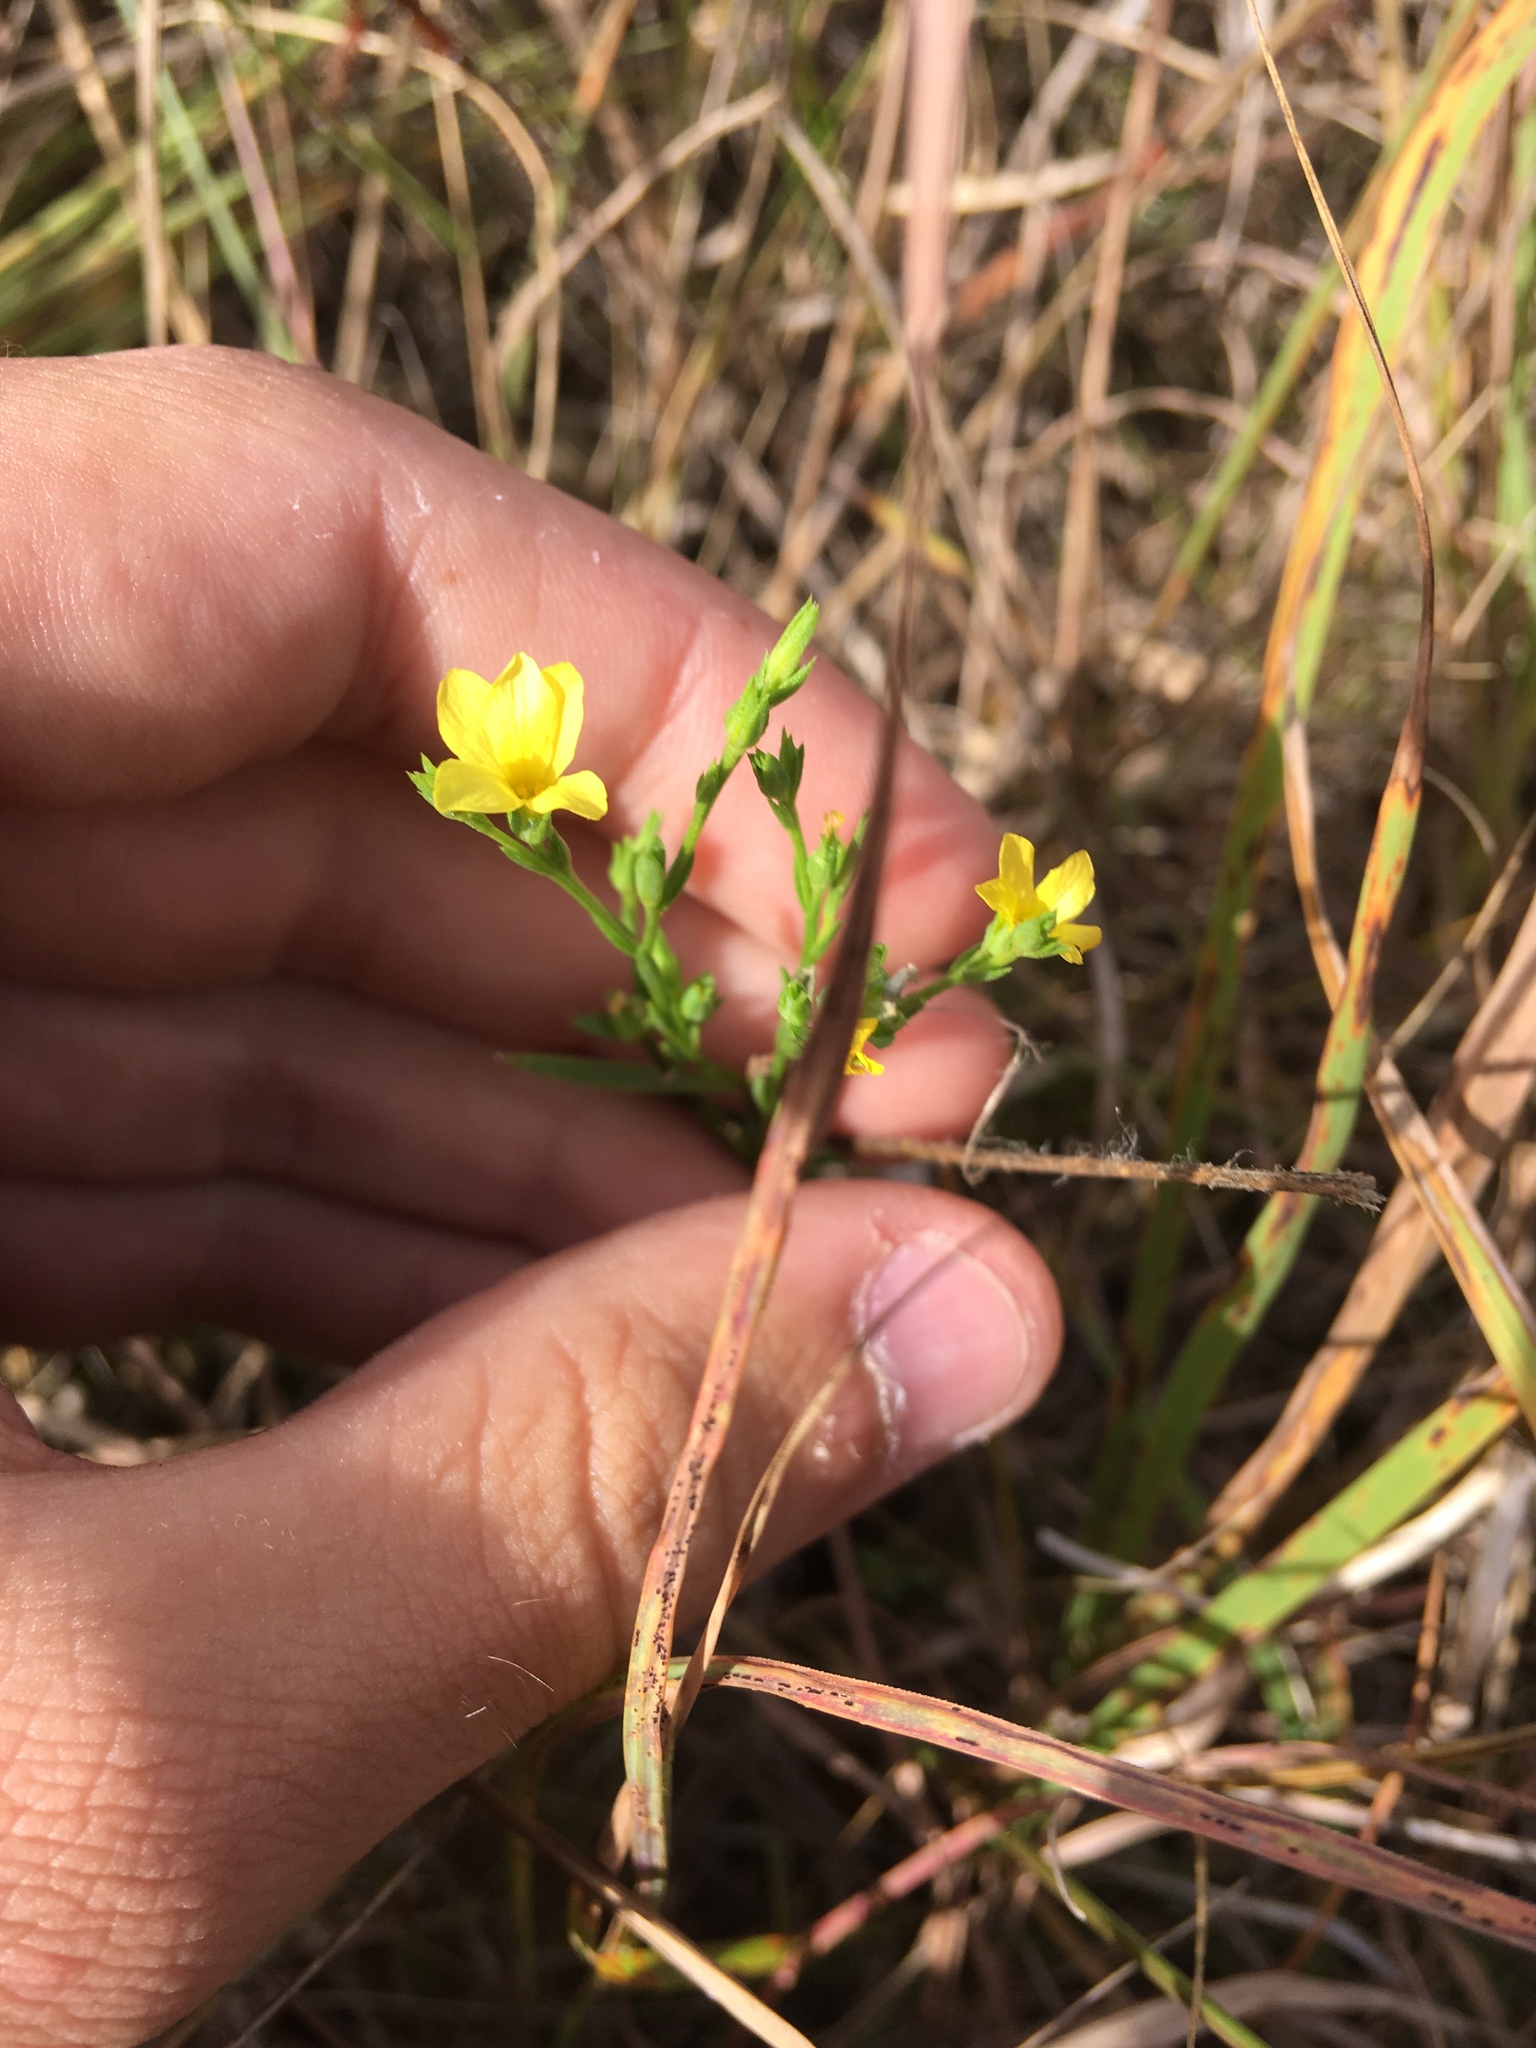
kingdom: Plantae
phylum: Tracheophyta
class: Magnoliopsida
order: Malpighiales
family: Linaceae
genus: Linum
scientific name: Linum sulcatum
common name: Grooved flax
